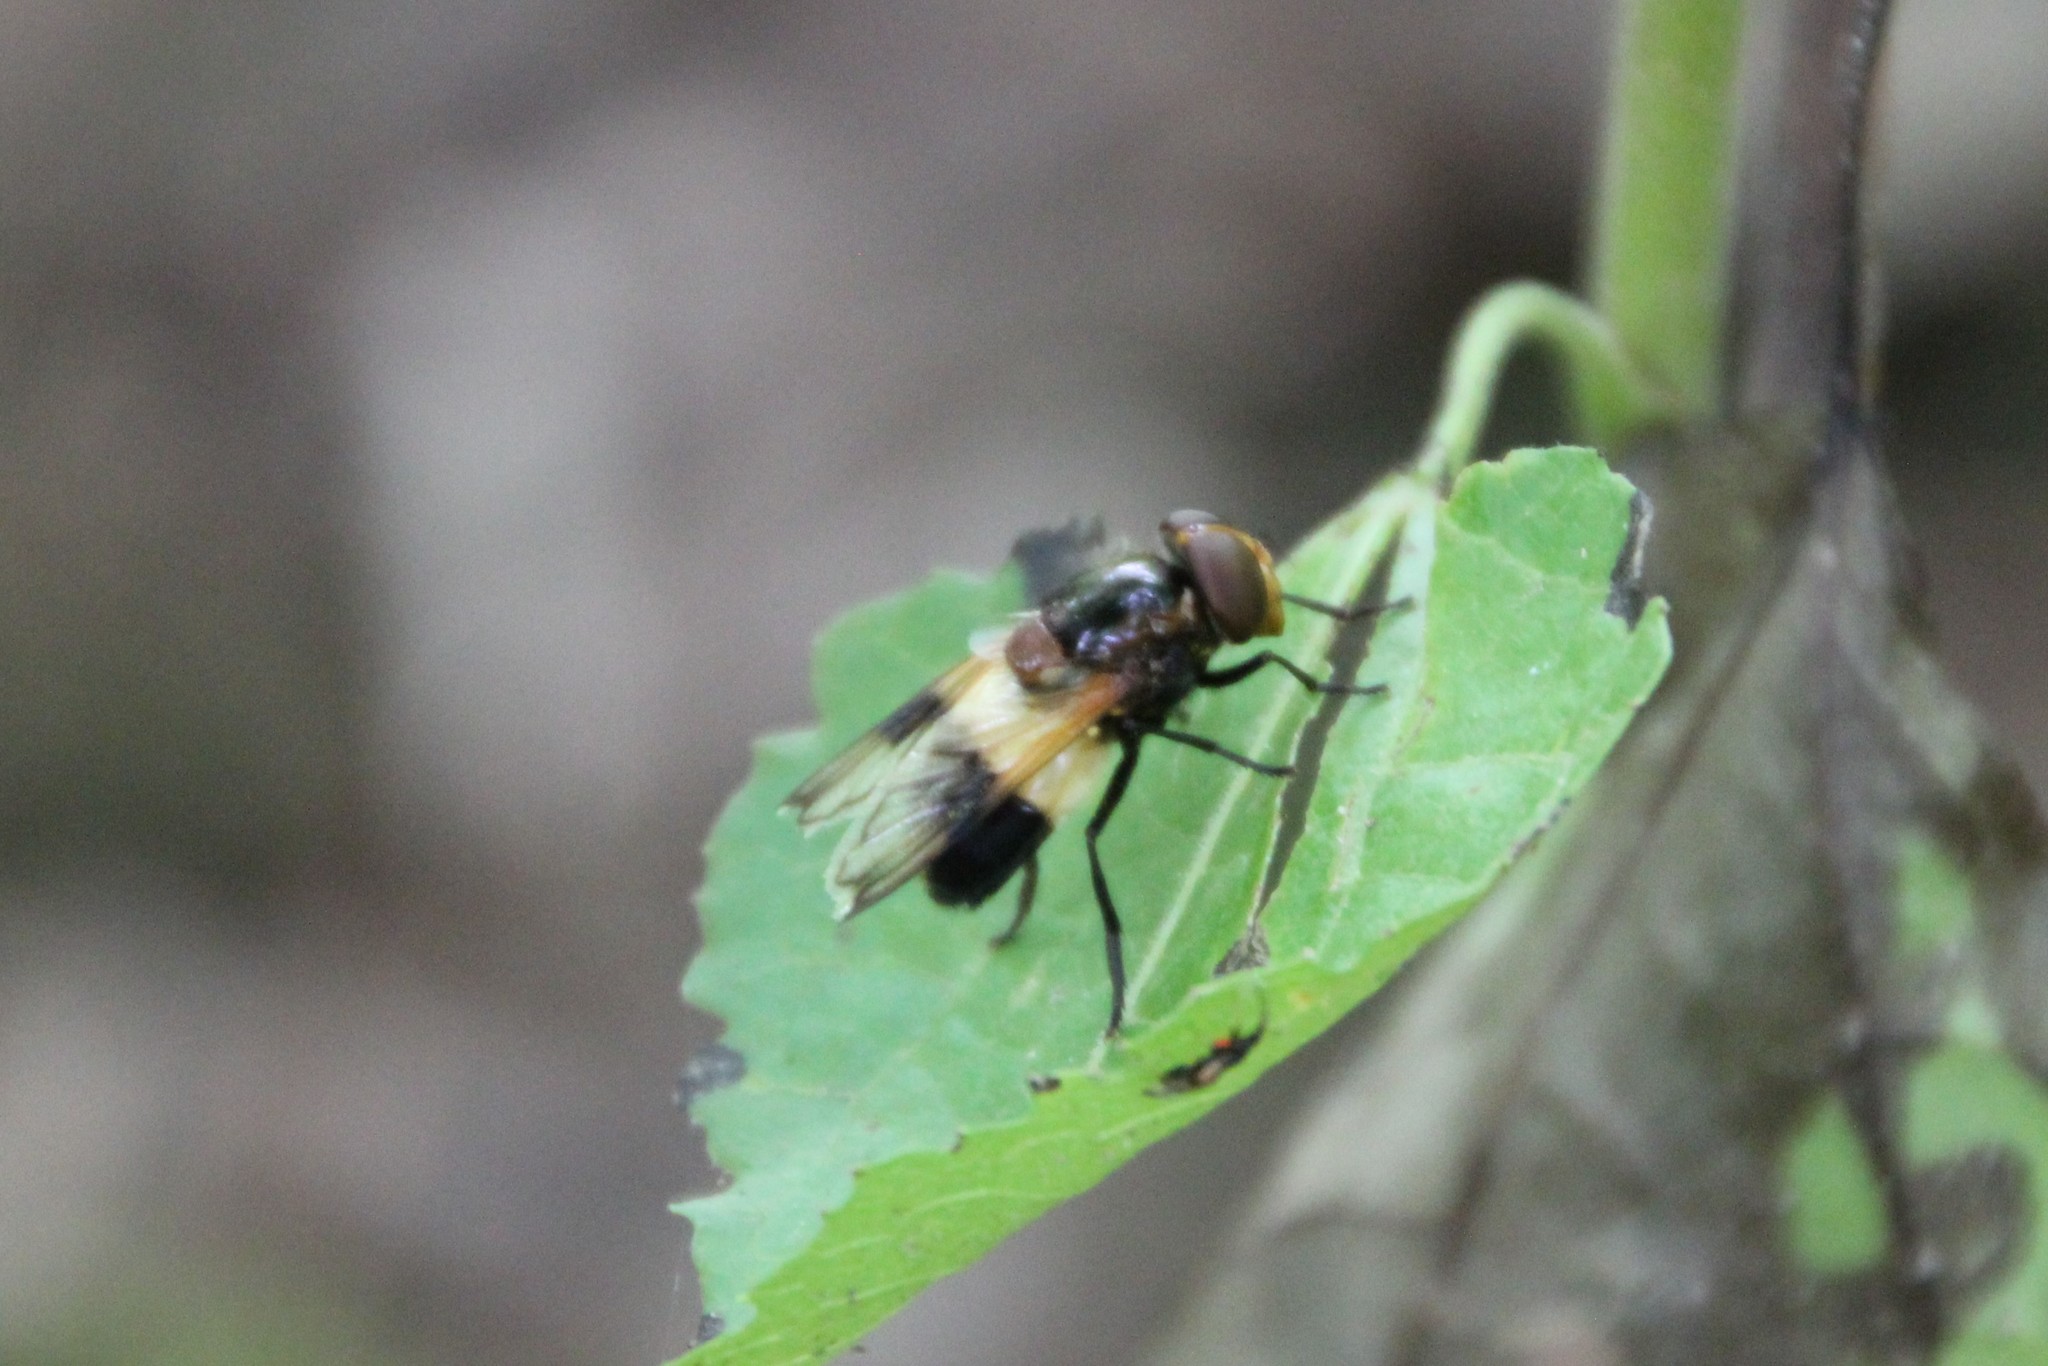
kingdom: Animalia
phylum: Arthropoda
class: Insecta
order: Diptera
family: Syrphidae
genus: Volucella
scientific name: Volucella pellucens
